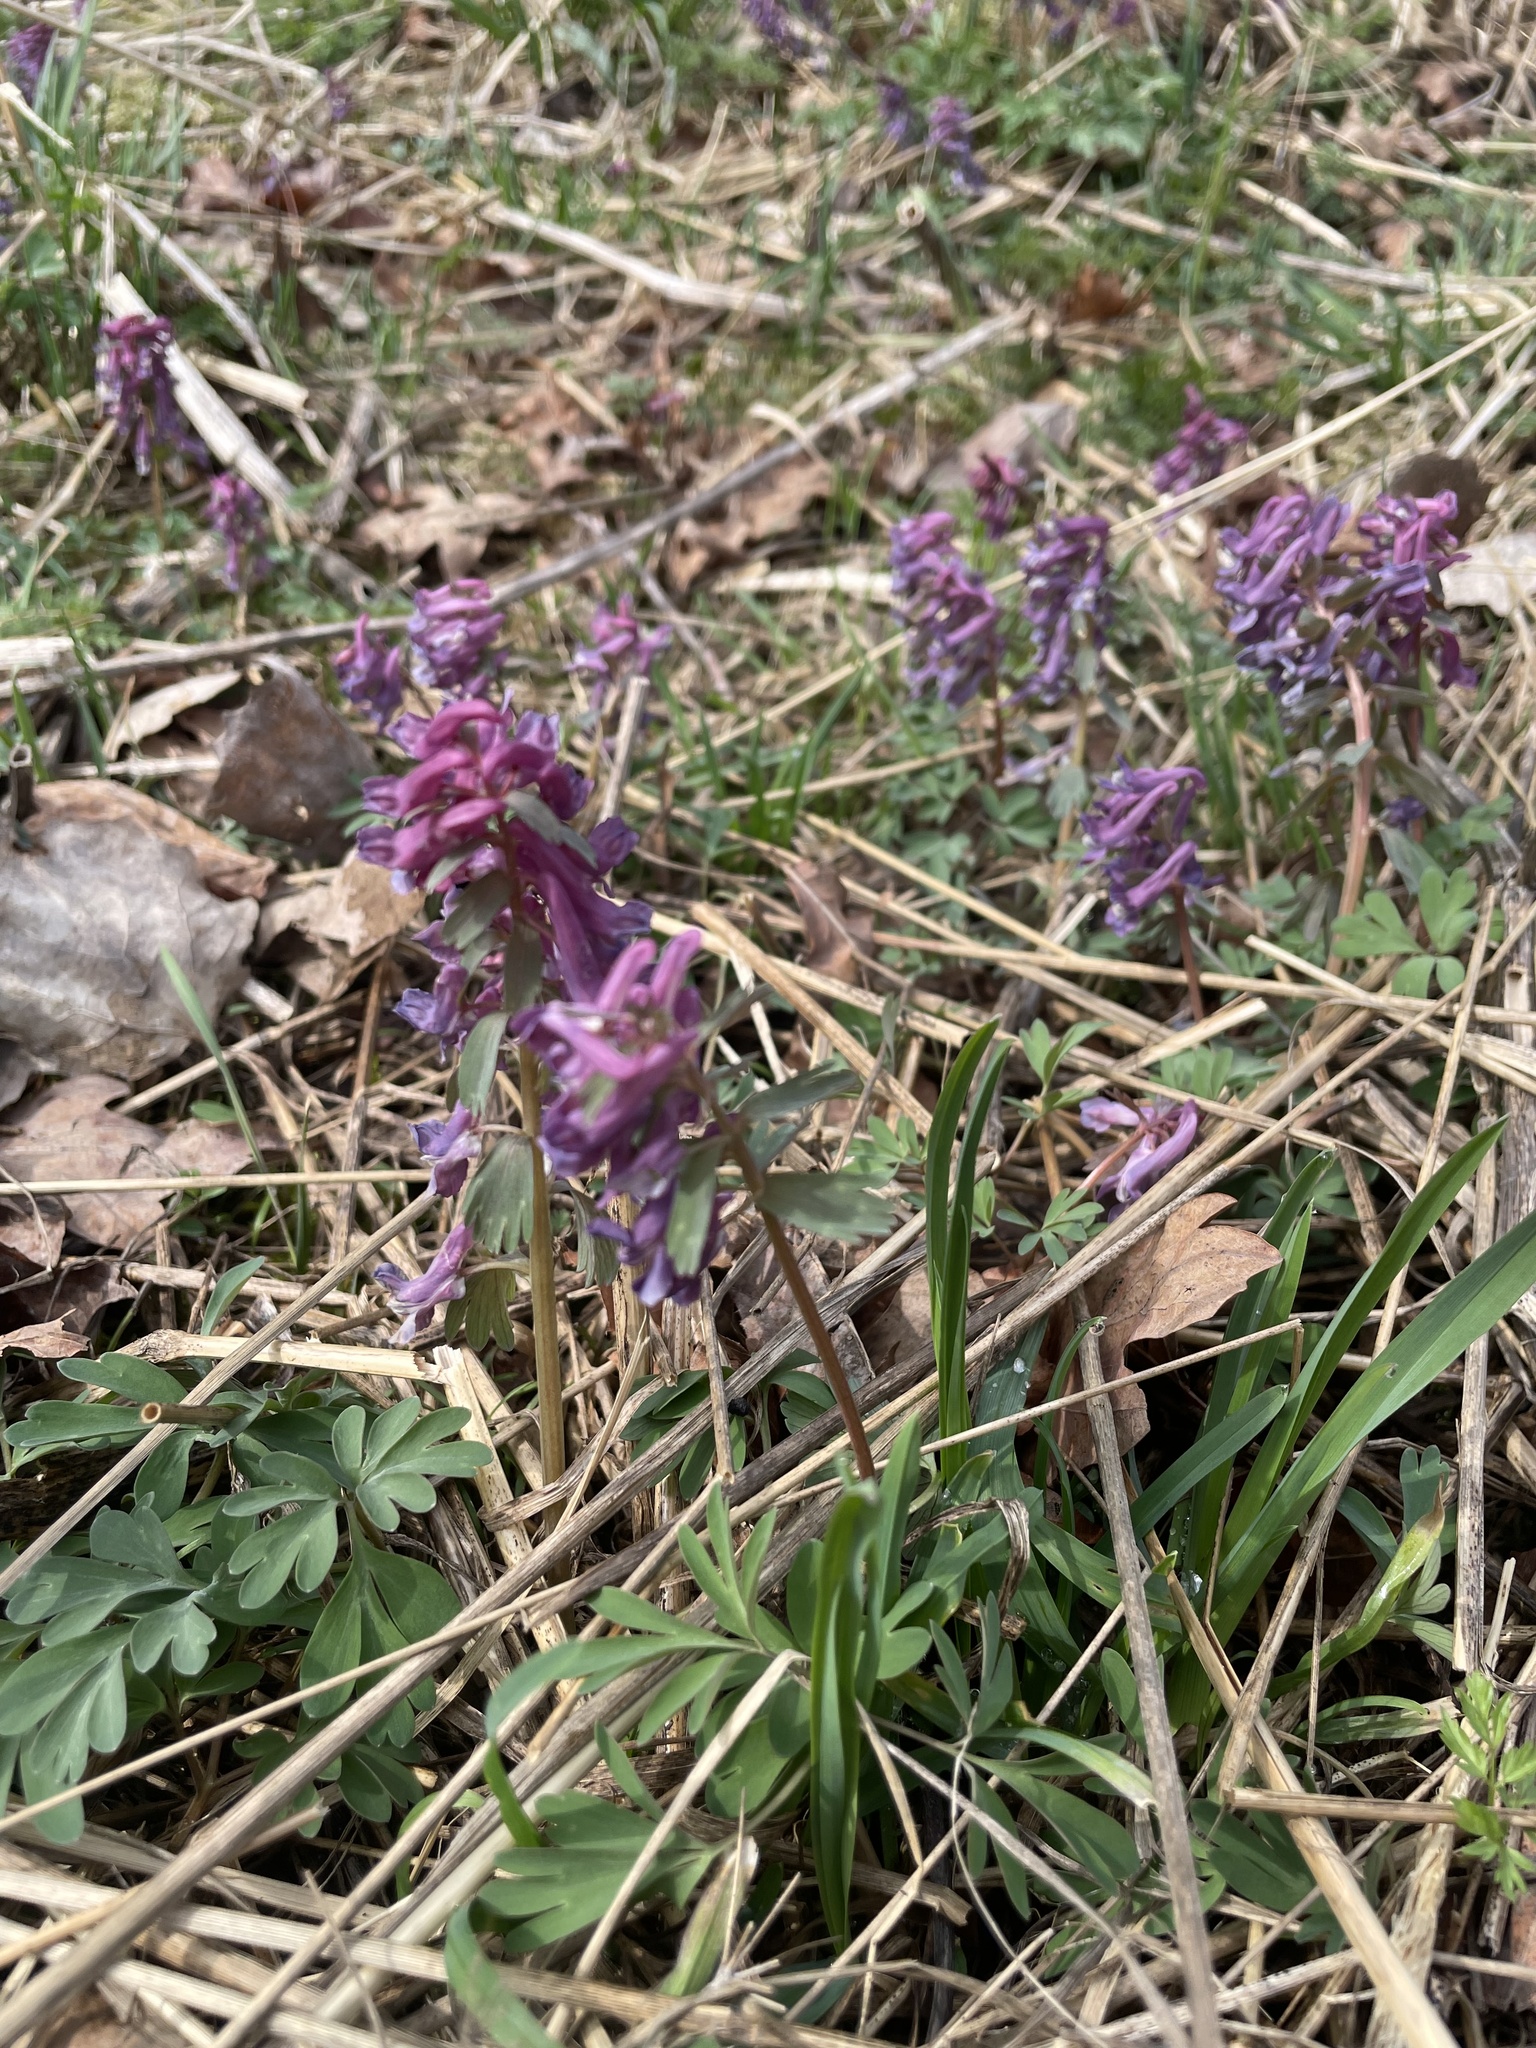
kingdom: Plantae
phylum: Tracheophyta
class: Magnoliopsida
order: Ranunculales
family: Papaveraceae
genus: Corydalis
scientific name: Corydalis solida
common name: Bird-in-a-bush
